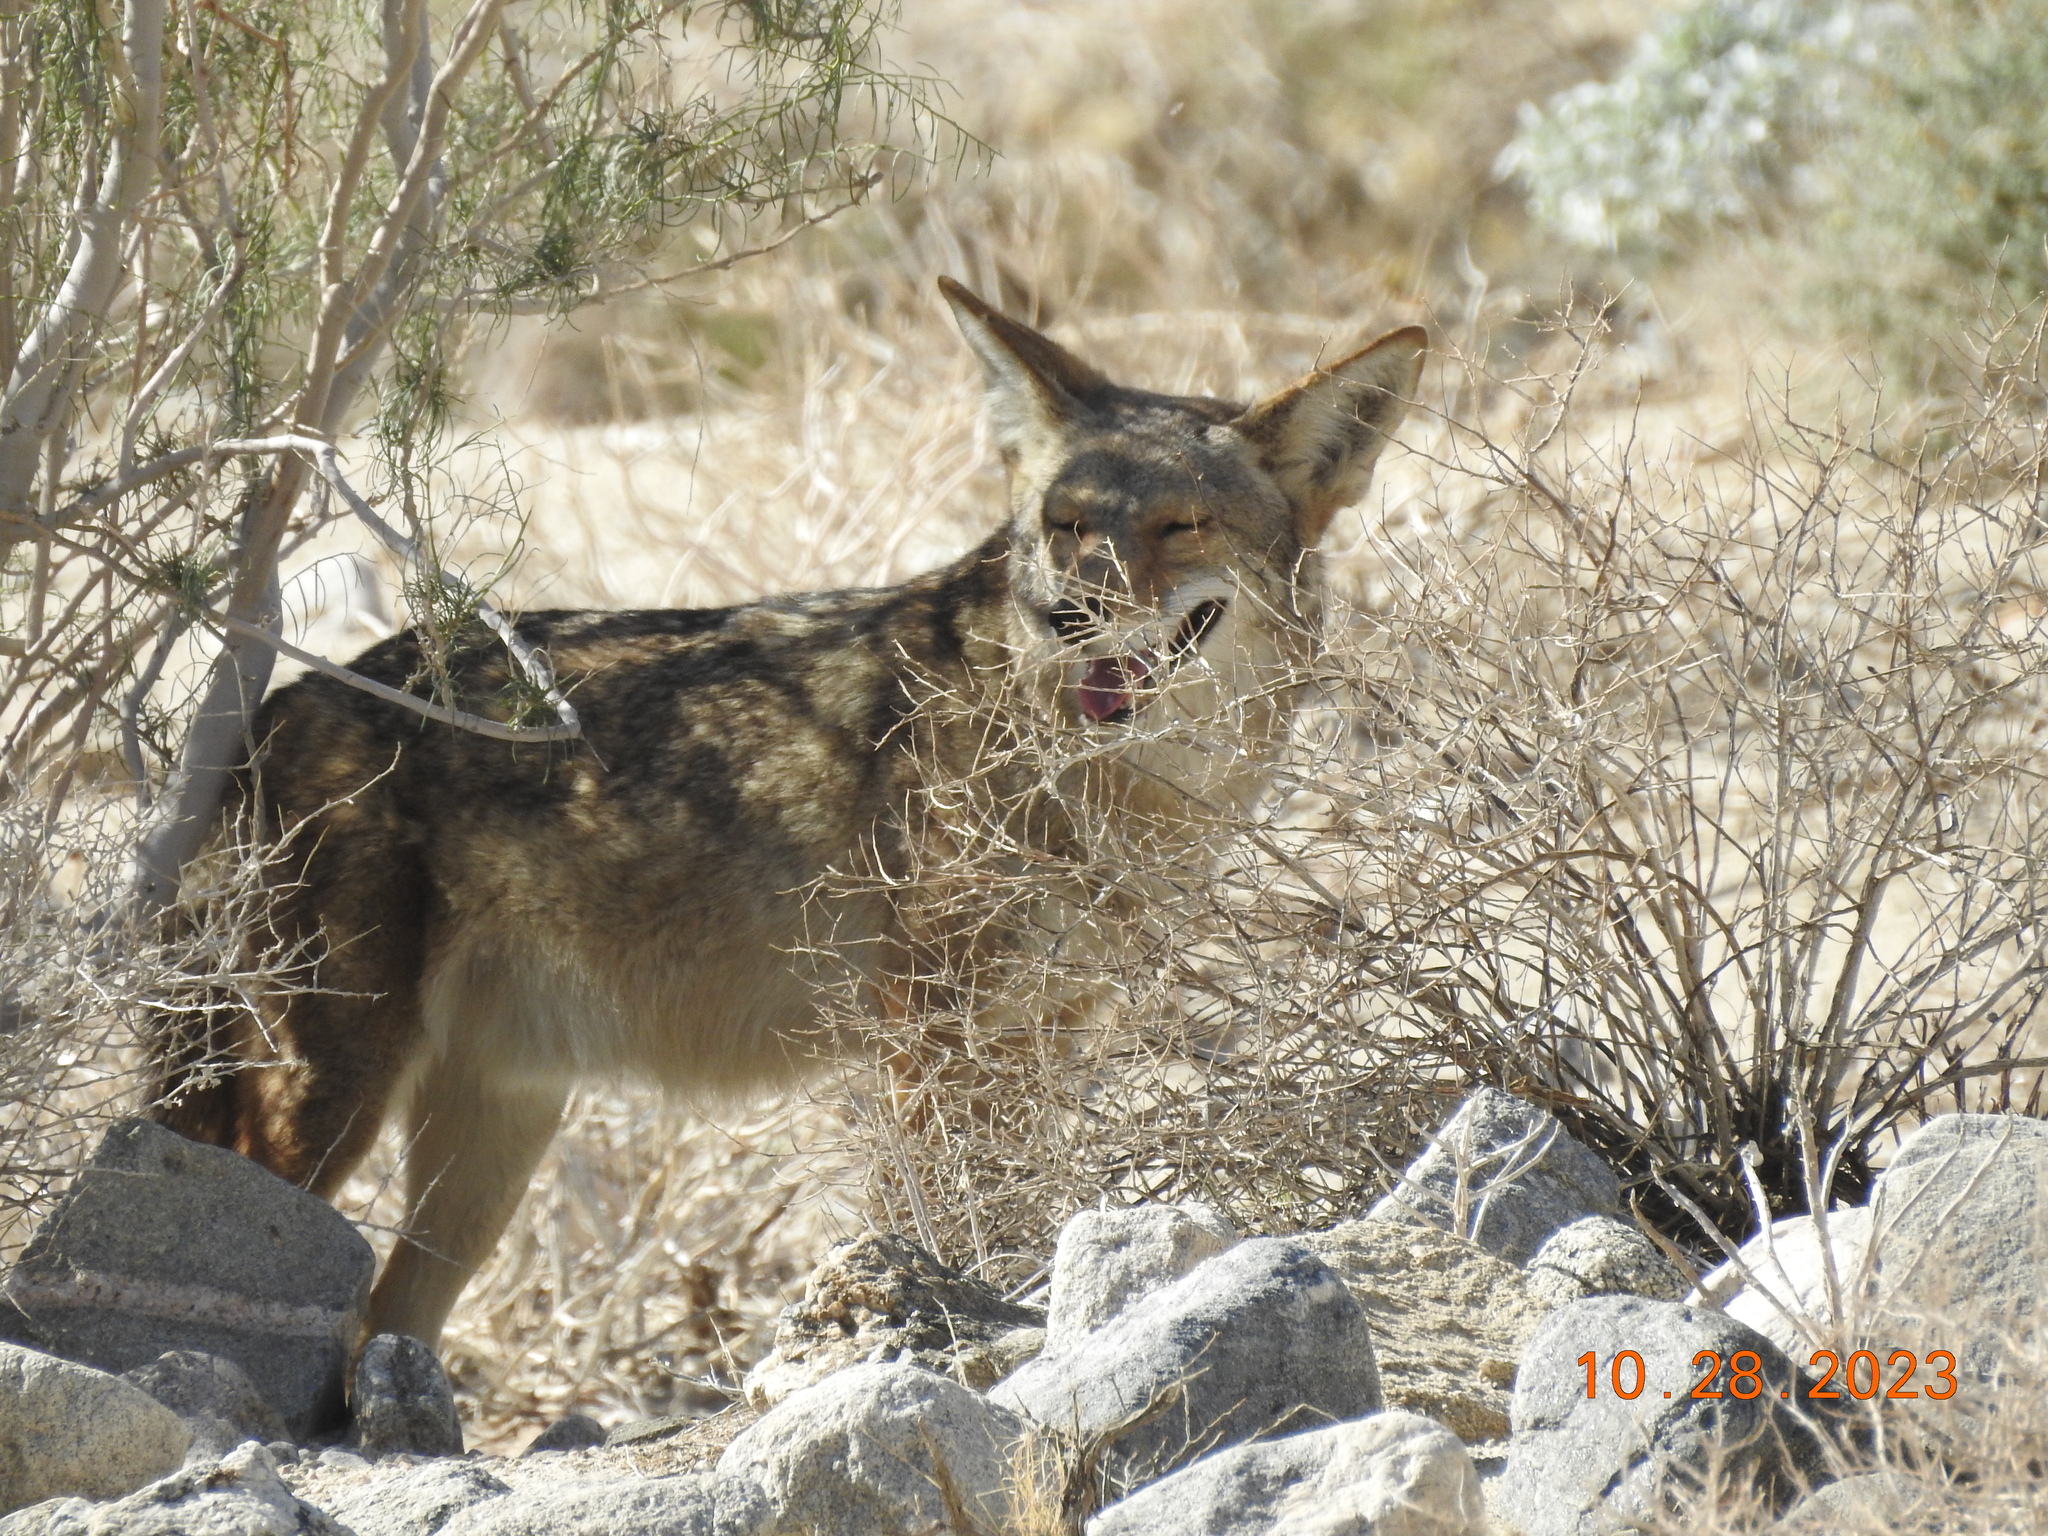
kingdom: Animalia
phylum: Chordata
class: Mammalia
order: Carnivora
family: Canidae
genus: Canis
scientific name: Canis latrans
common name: Coyote
